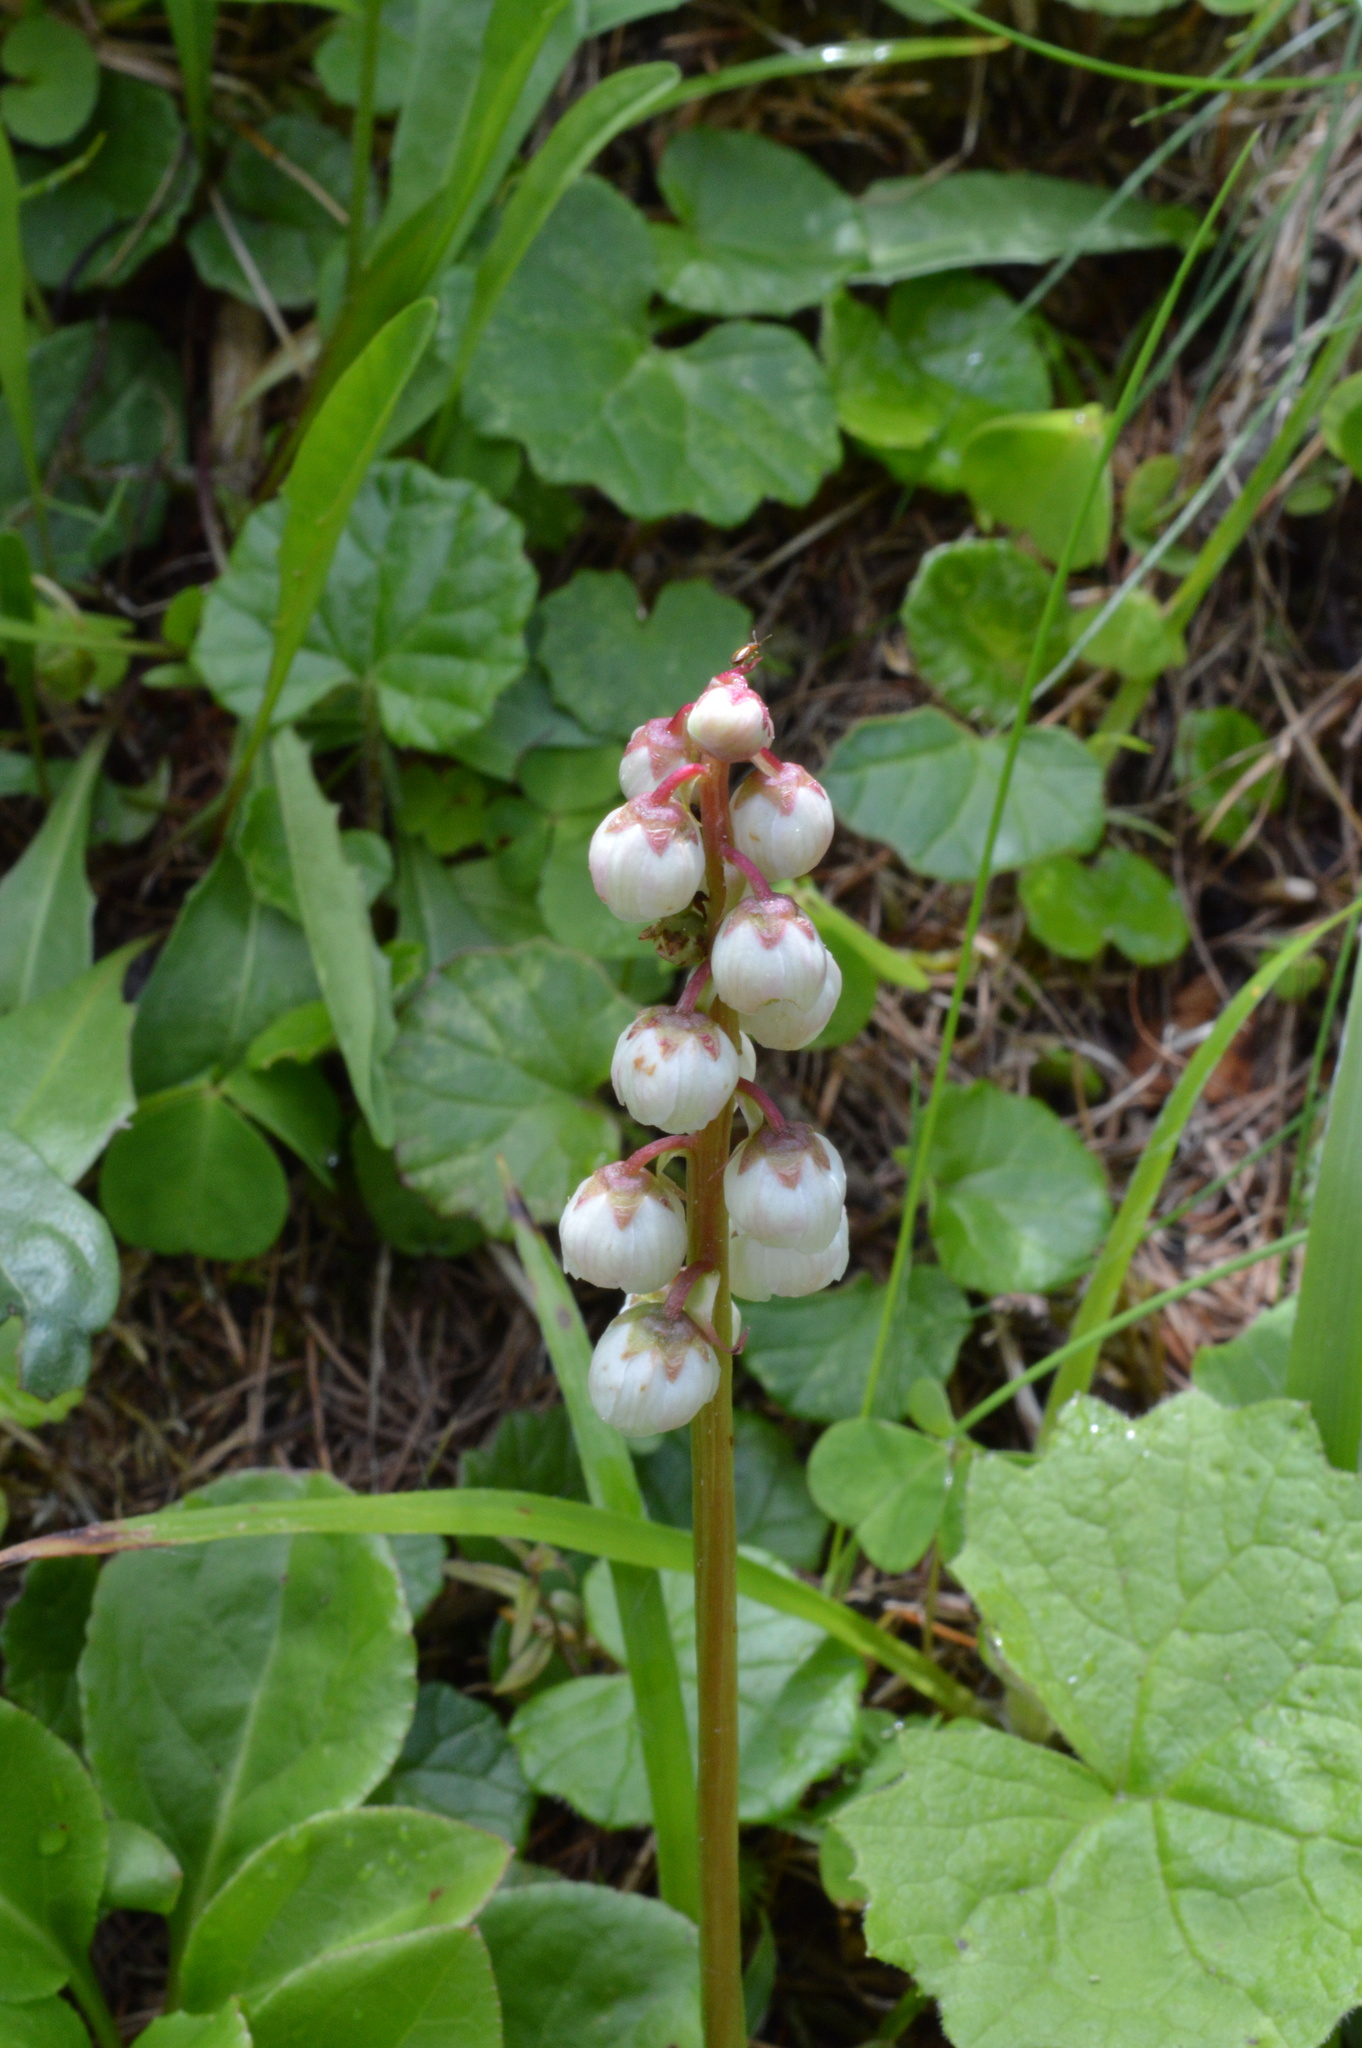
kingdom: Plantae
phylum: Tracheophyta
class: Magnoliopsida
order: Ericales
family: Ericaceae
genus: Pyrola
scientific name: Pyrola minor
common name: Common wintergreen
